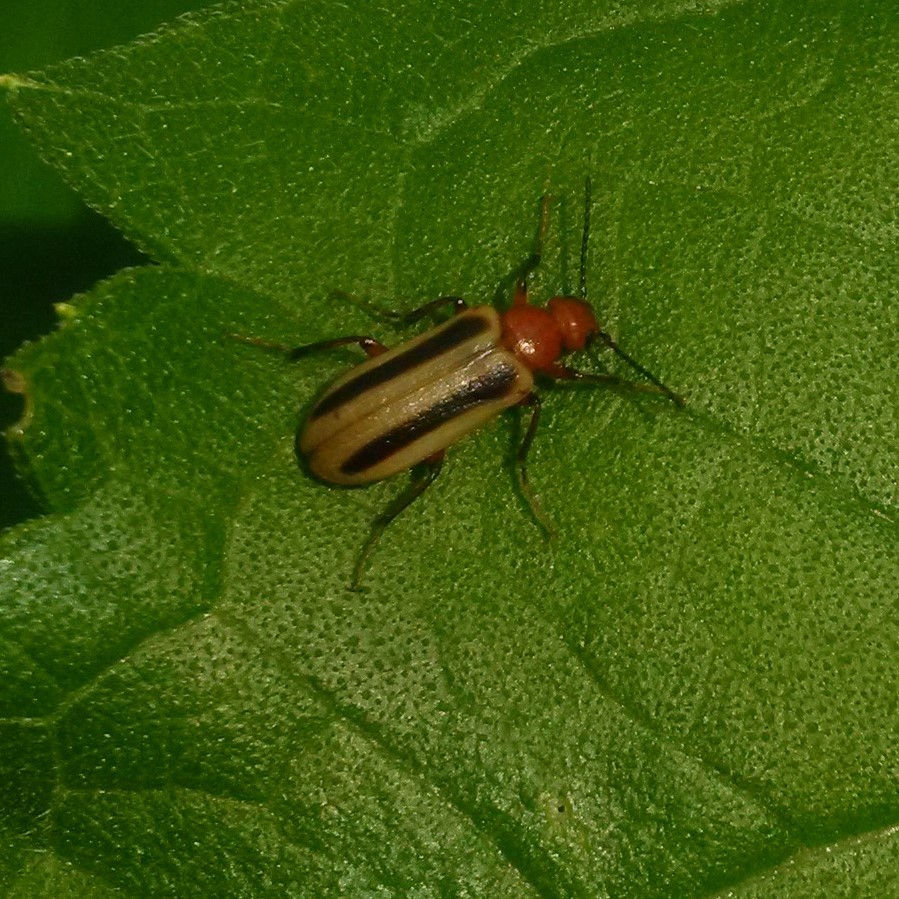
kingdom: Animalia
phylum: Arthropoda
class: Insecta
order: Coleoptera
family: Meloidae
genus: Zonitis
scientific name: Zonitis bilineata
